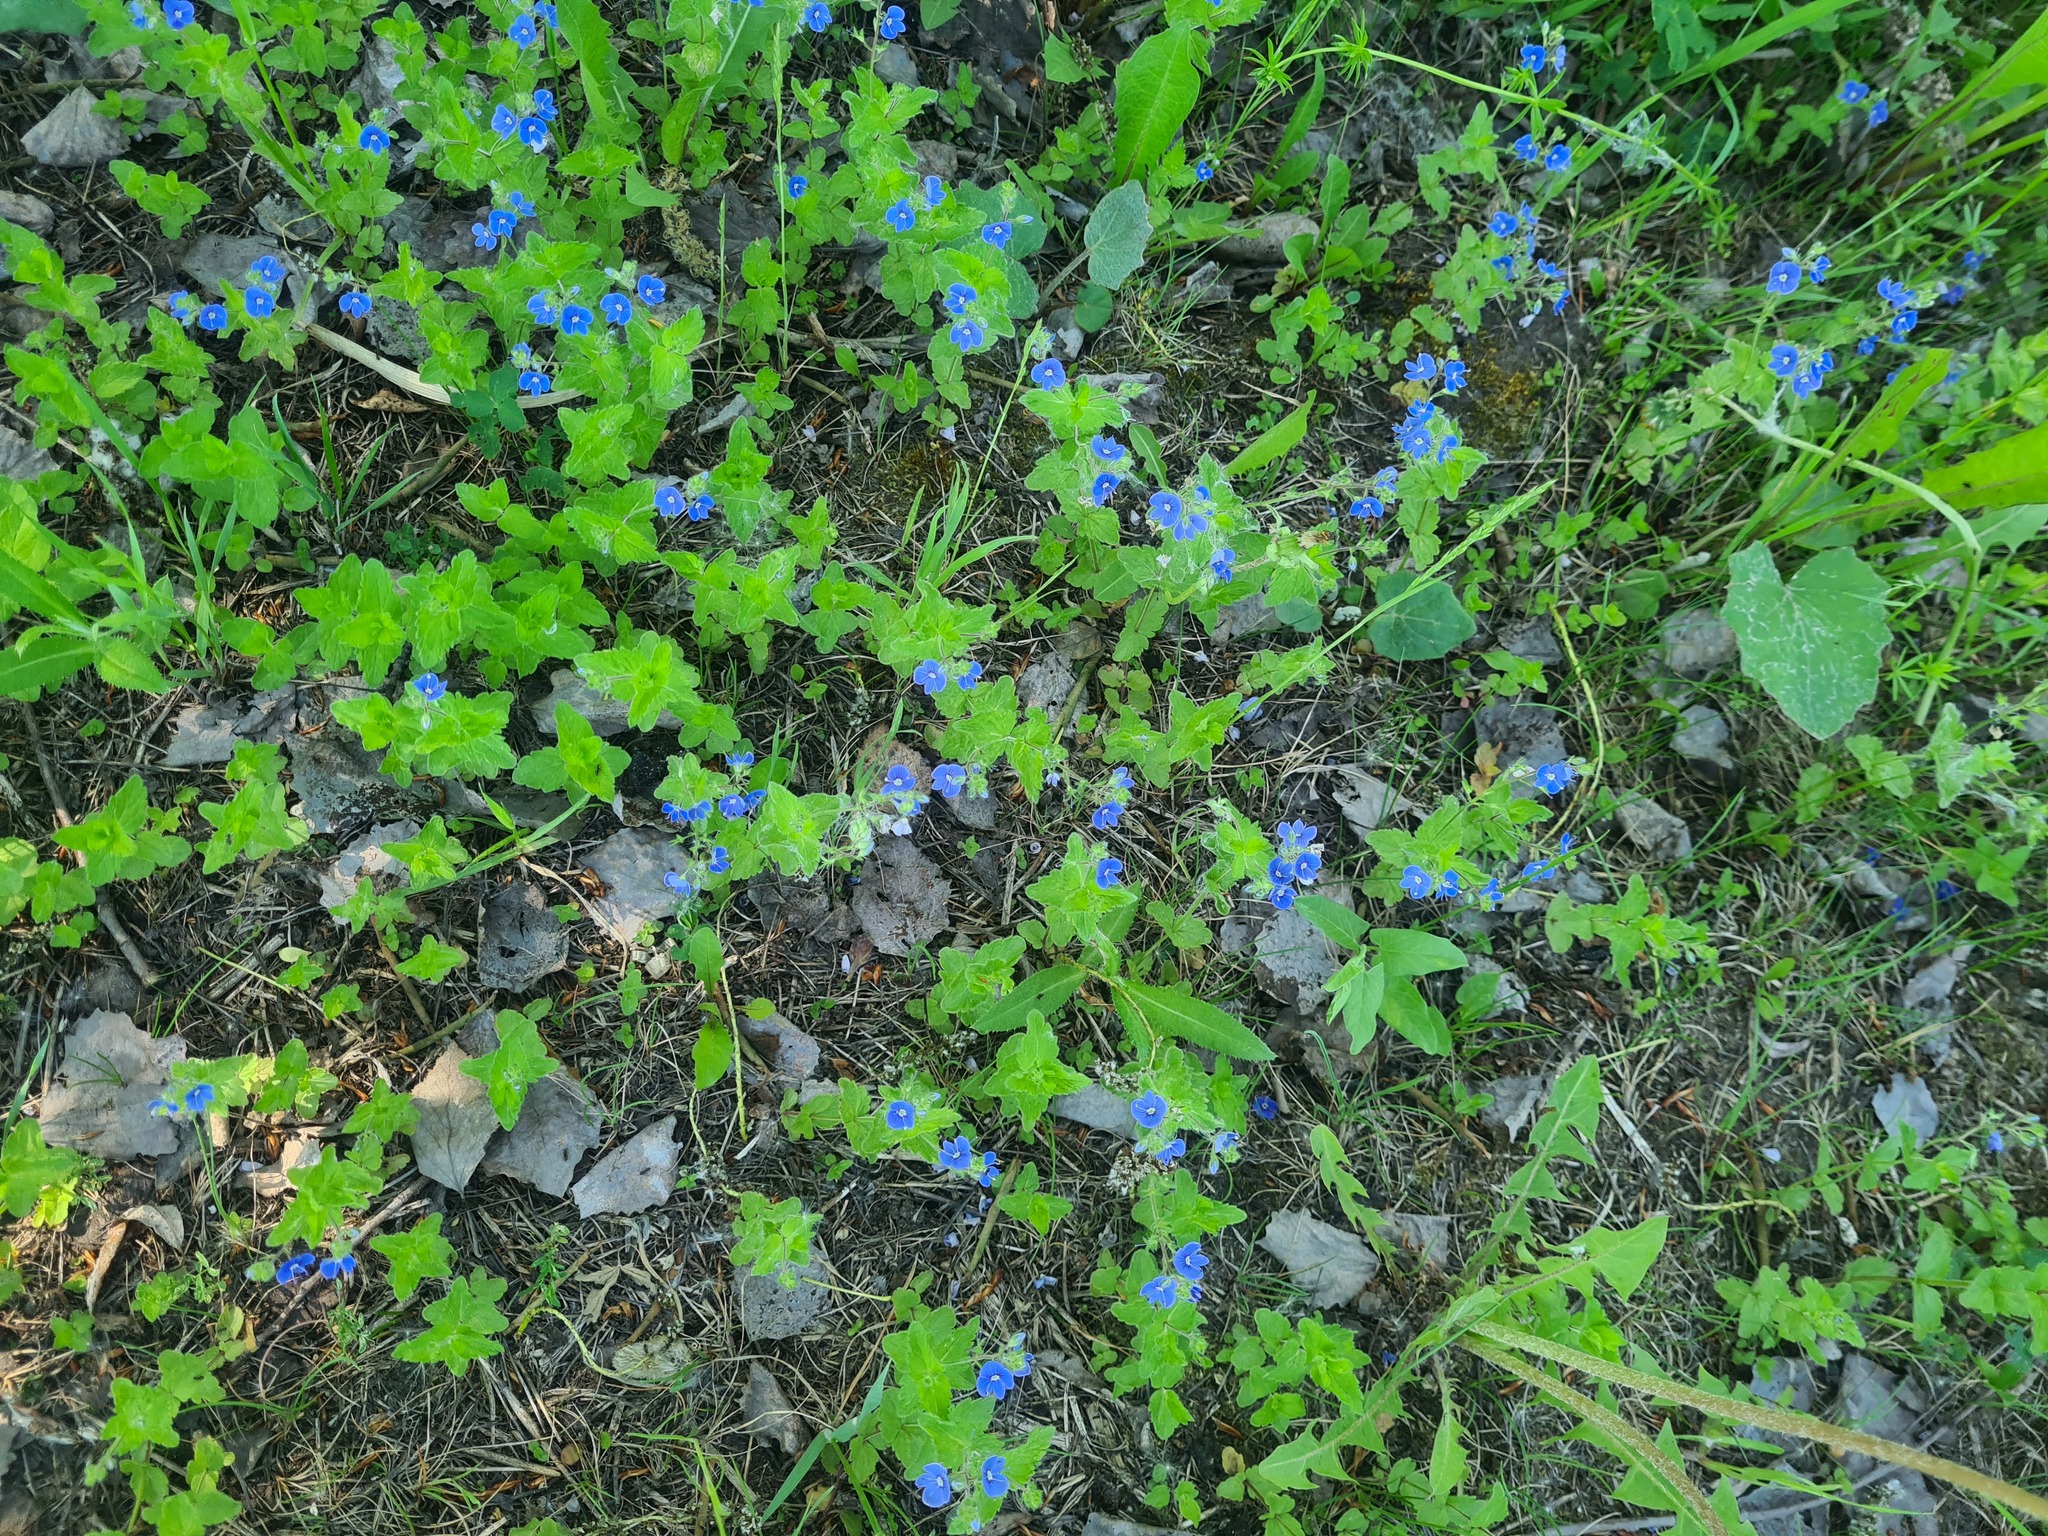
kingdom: Plantae
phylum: Tracheophyta
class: Magnoliopsida
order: Lamiales
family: Plantaginaceae
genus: Veronica
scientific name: Veronica chamaedrys
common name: Germander speedwell
